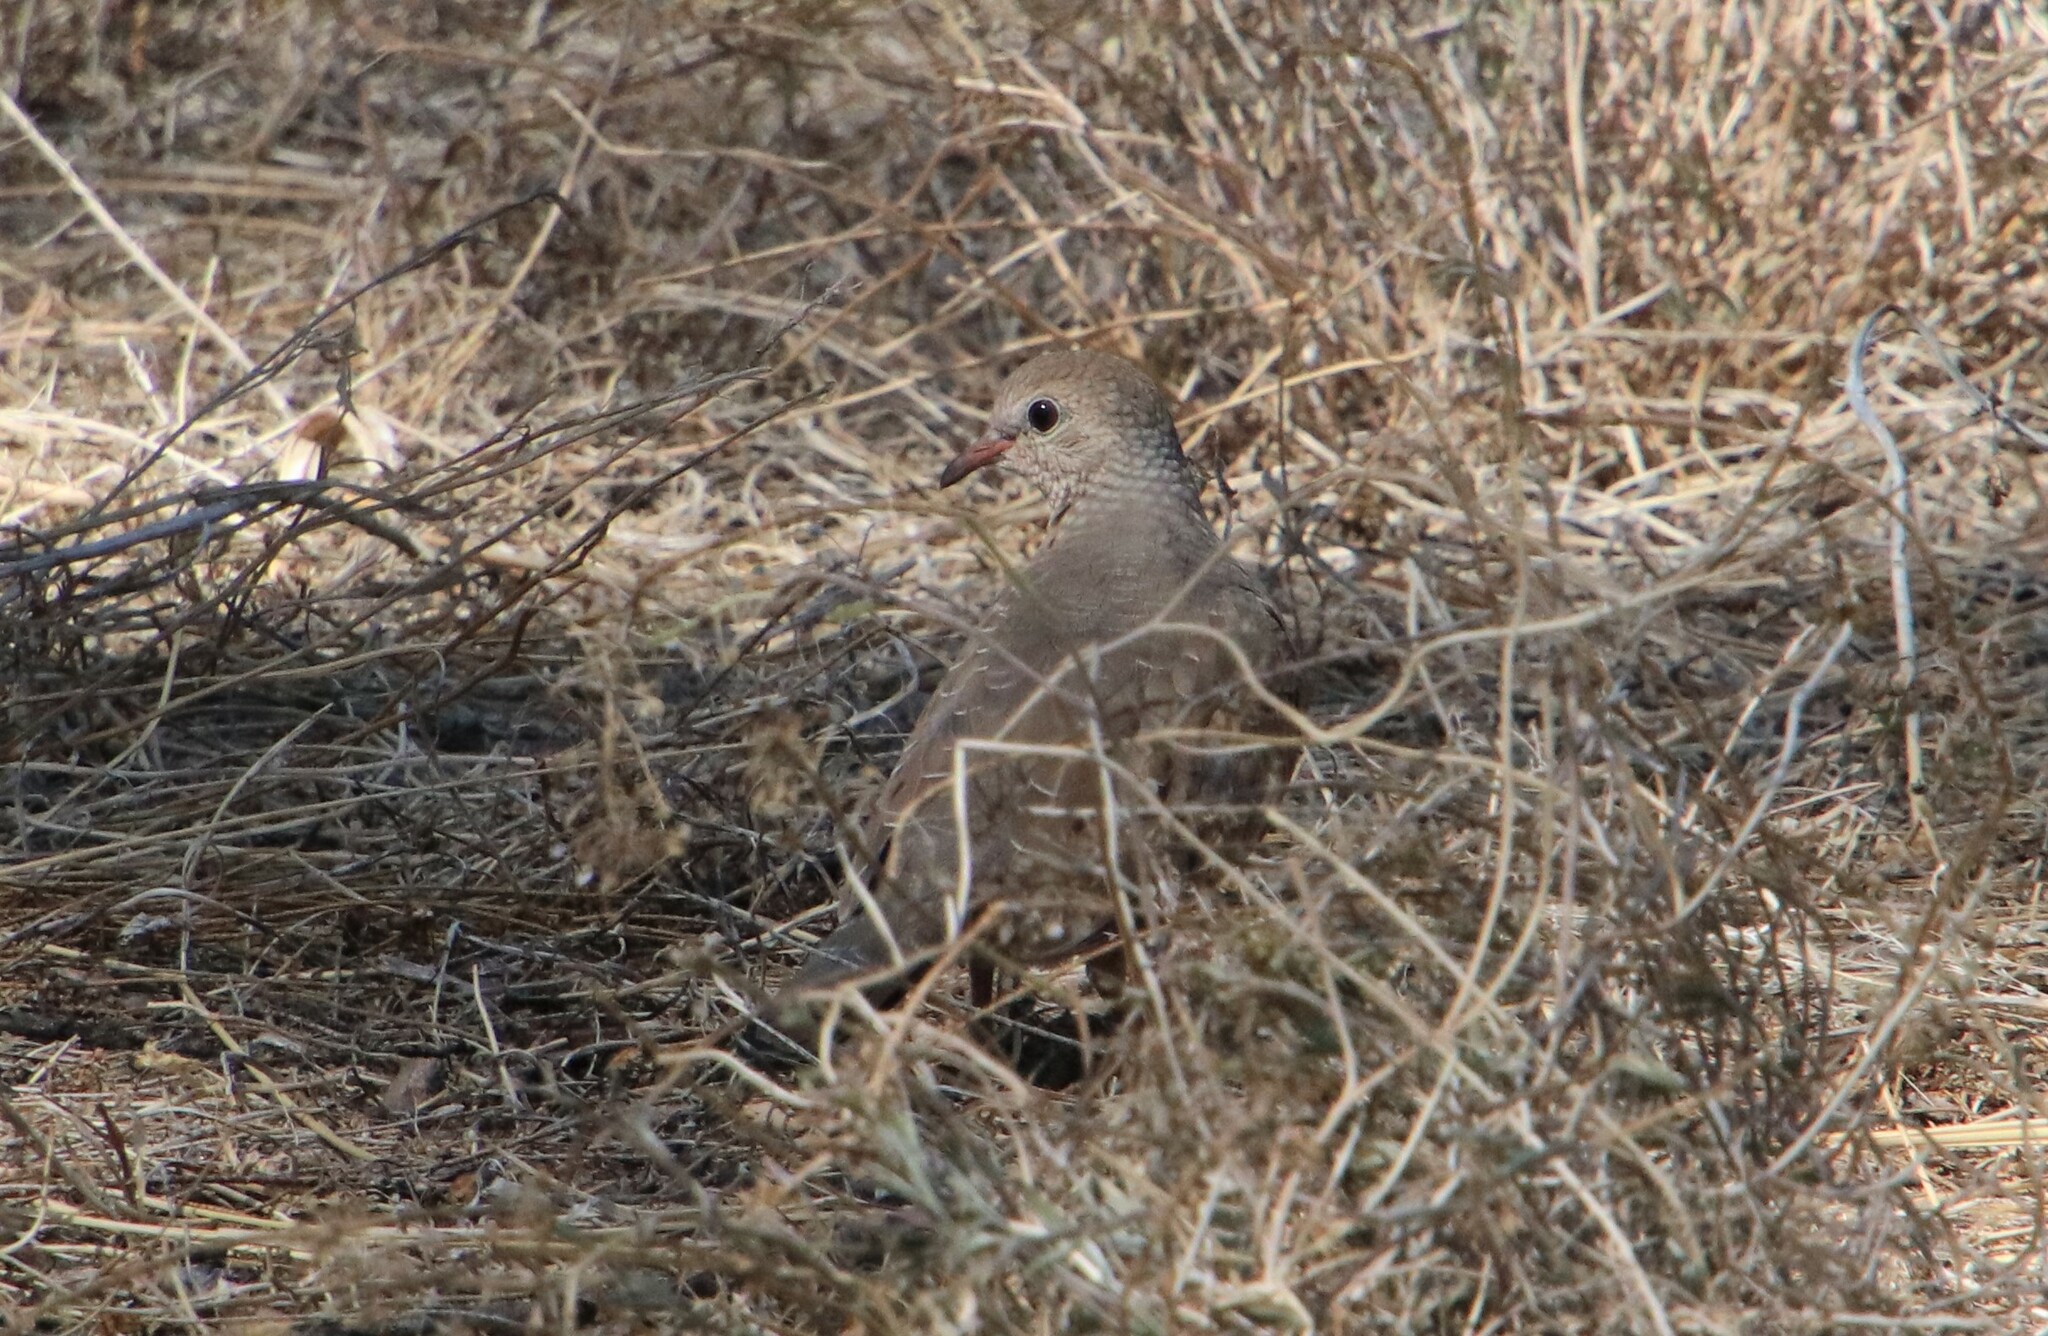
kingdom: Animalia
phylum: Chordata
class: Aves
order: Columbiformes
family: Columbidae
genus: Columbina
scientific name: Columbina passerina
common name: Common ground-dove
